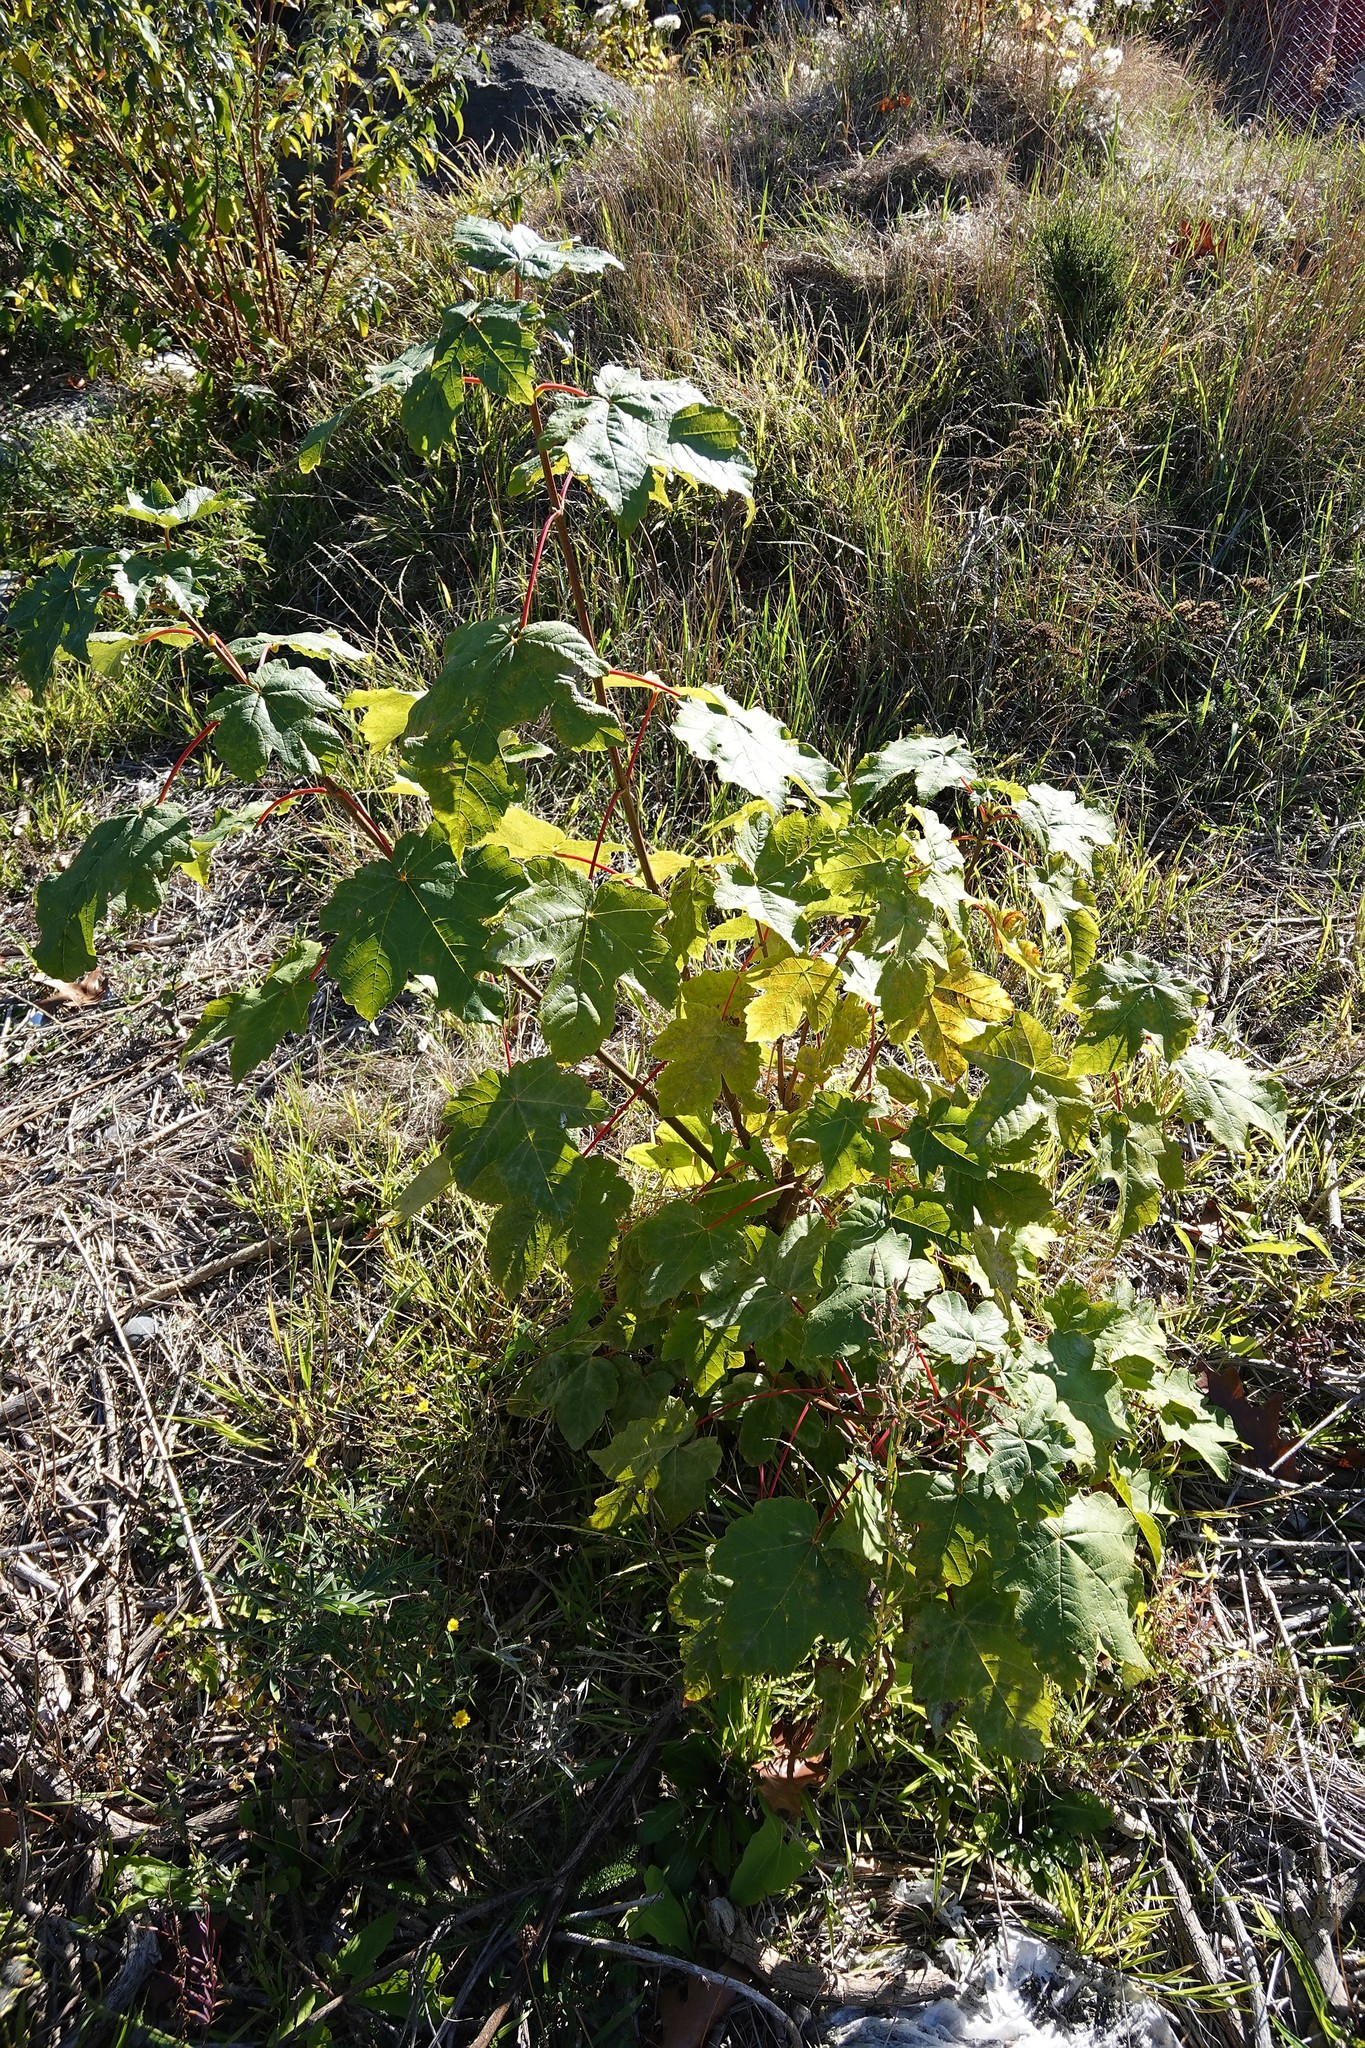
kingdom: Plantae
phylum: Tracheophyta
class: Magnoliopsida
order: Sapindales
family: Sapindaceae
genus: Acer
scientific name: Acer pseudoplatanus
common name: Sycamore
